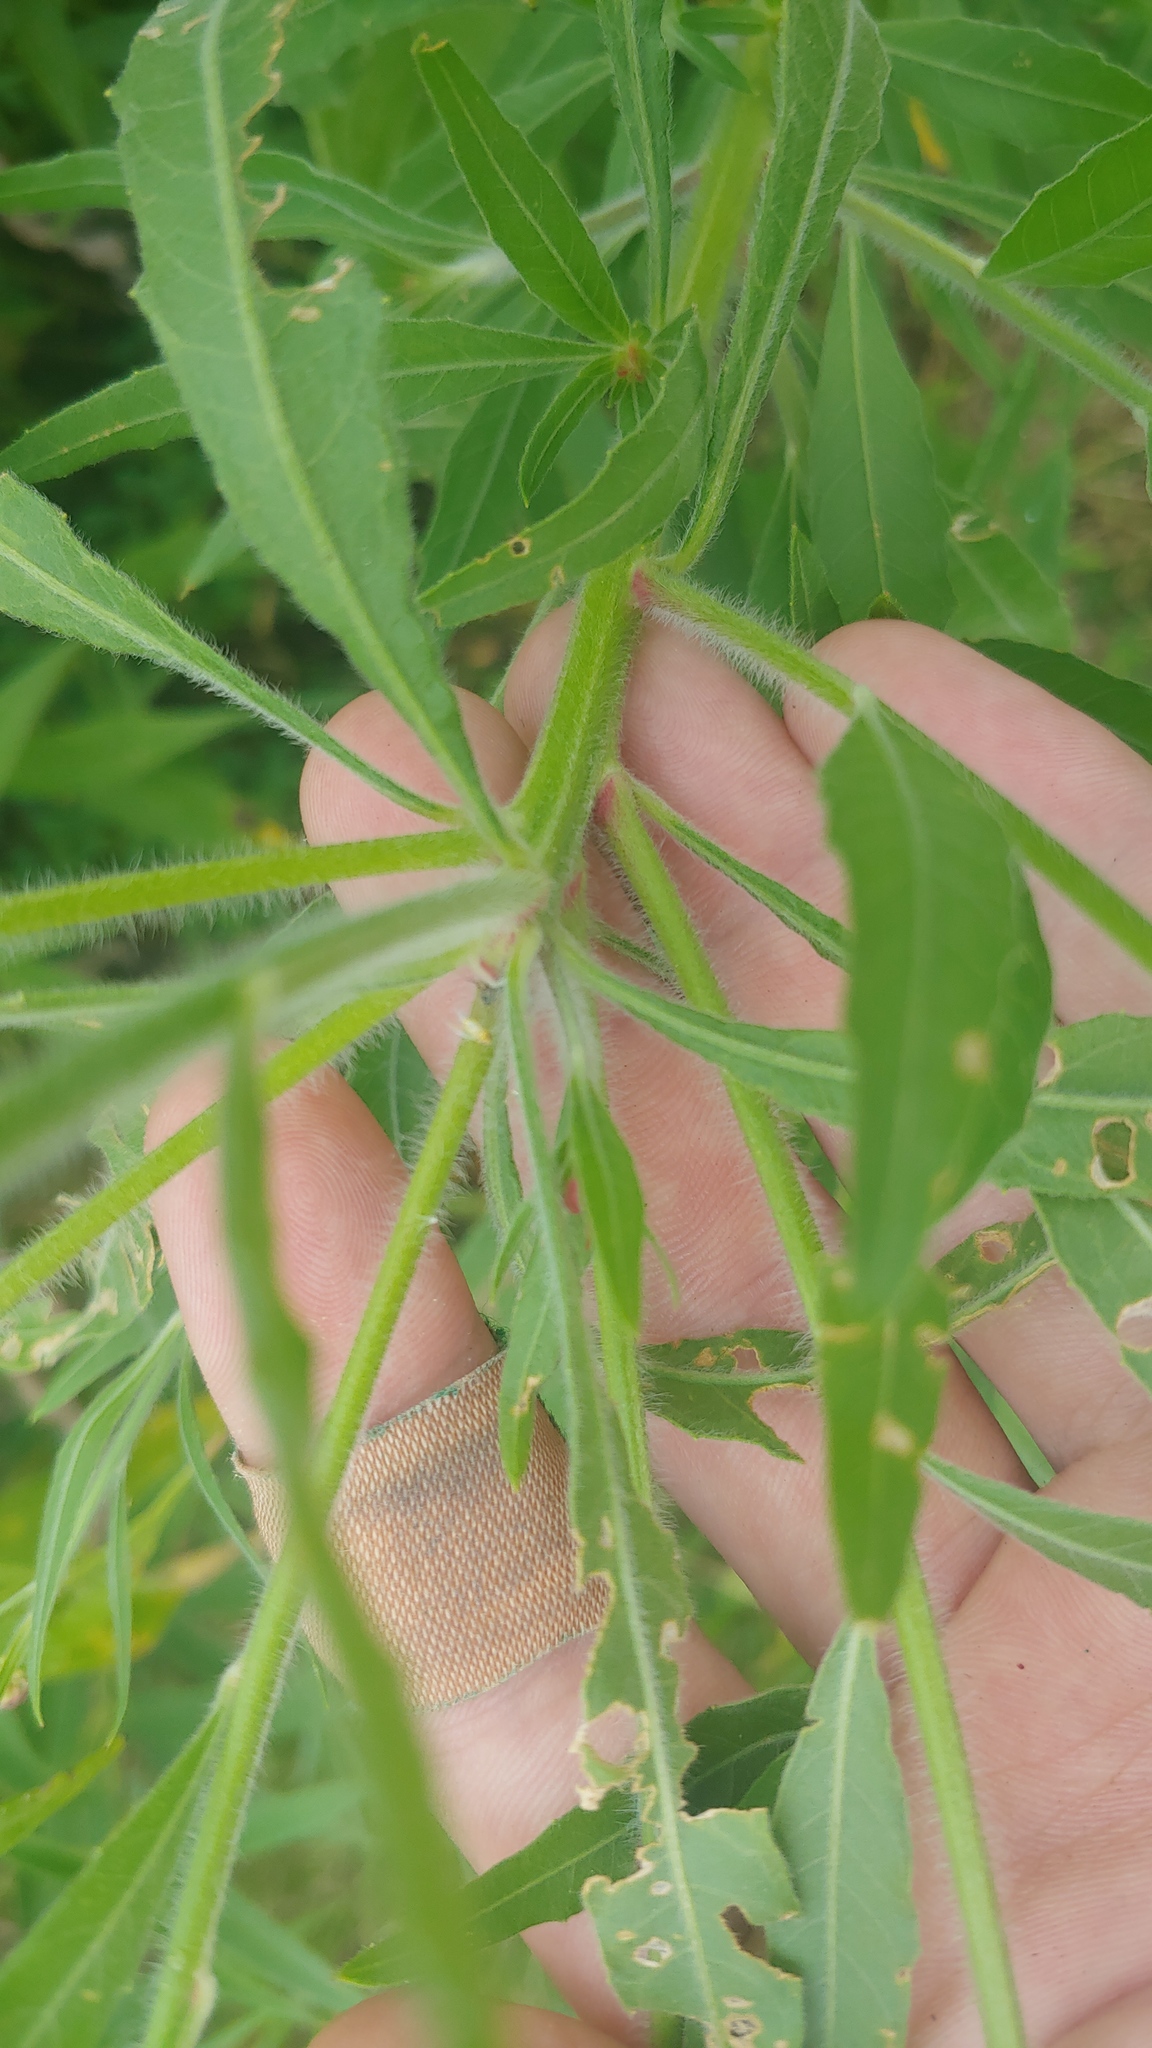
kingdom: Plantae
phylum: Tracheophyta
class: Magnoliopsida
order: Myrtales
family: Onagraceae
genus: Oenothera
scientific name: Oenothera gaura
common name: Biennial beeblossom
